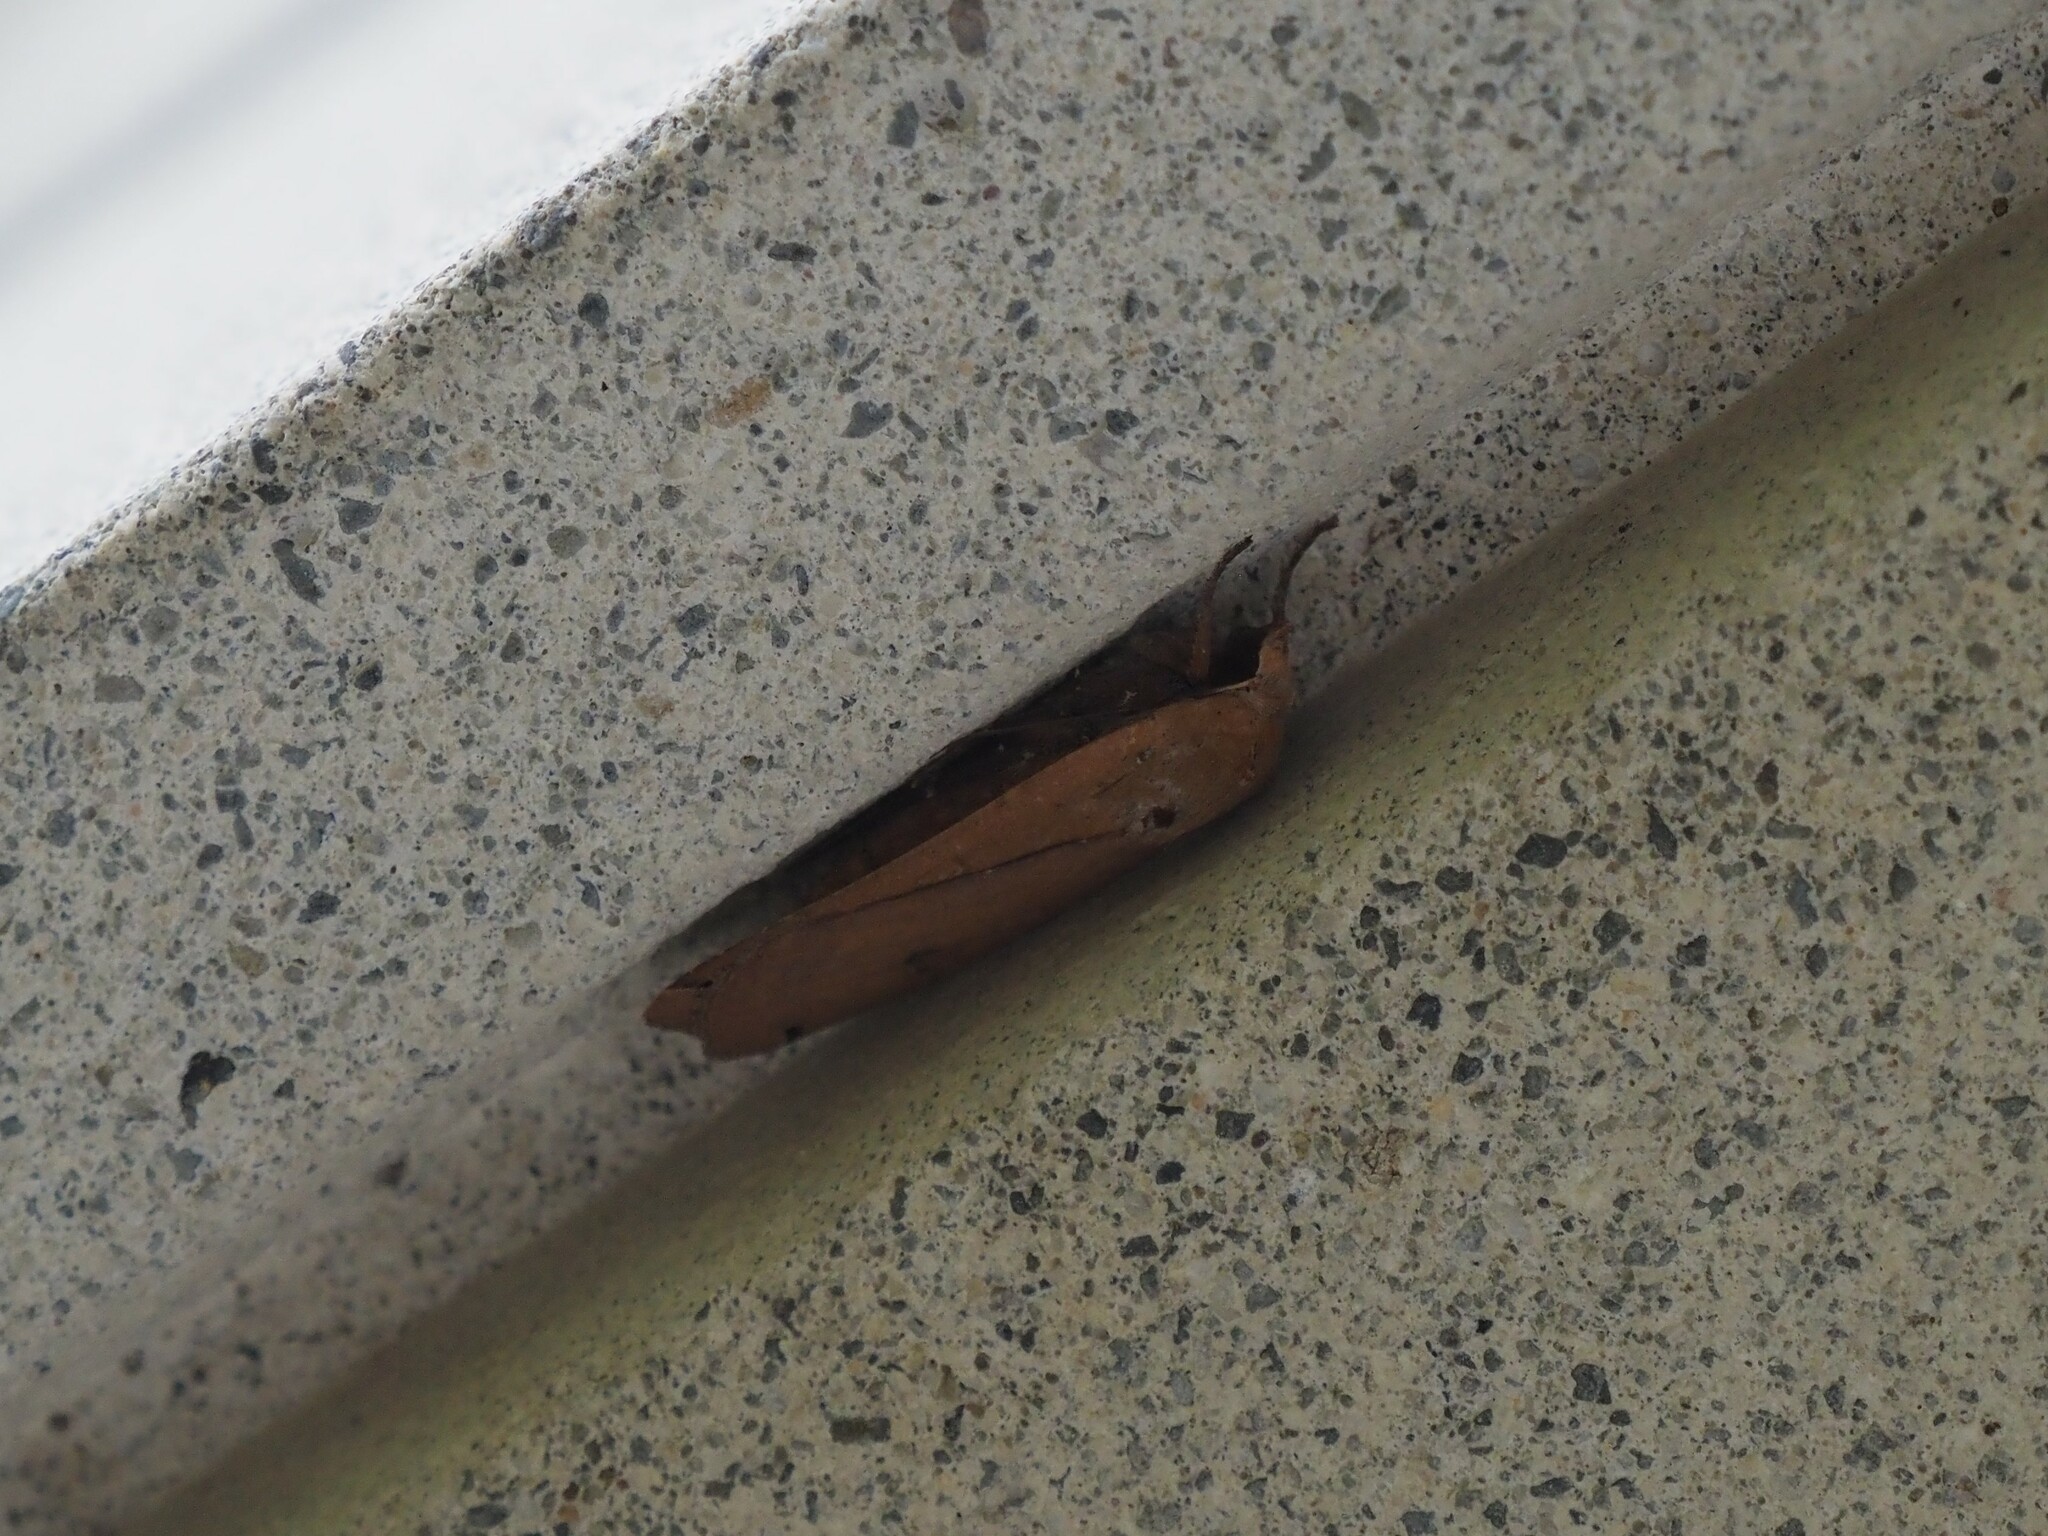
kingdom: Animalia
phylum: Arthropoda
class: Insecta
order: Lepidoptera
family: Noctuidae
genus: Noctua
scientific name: Noctua pronuba
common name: Large yellow underwing
